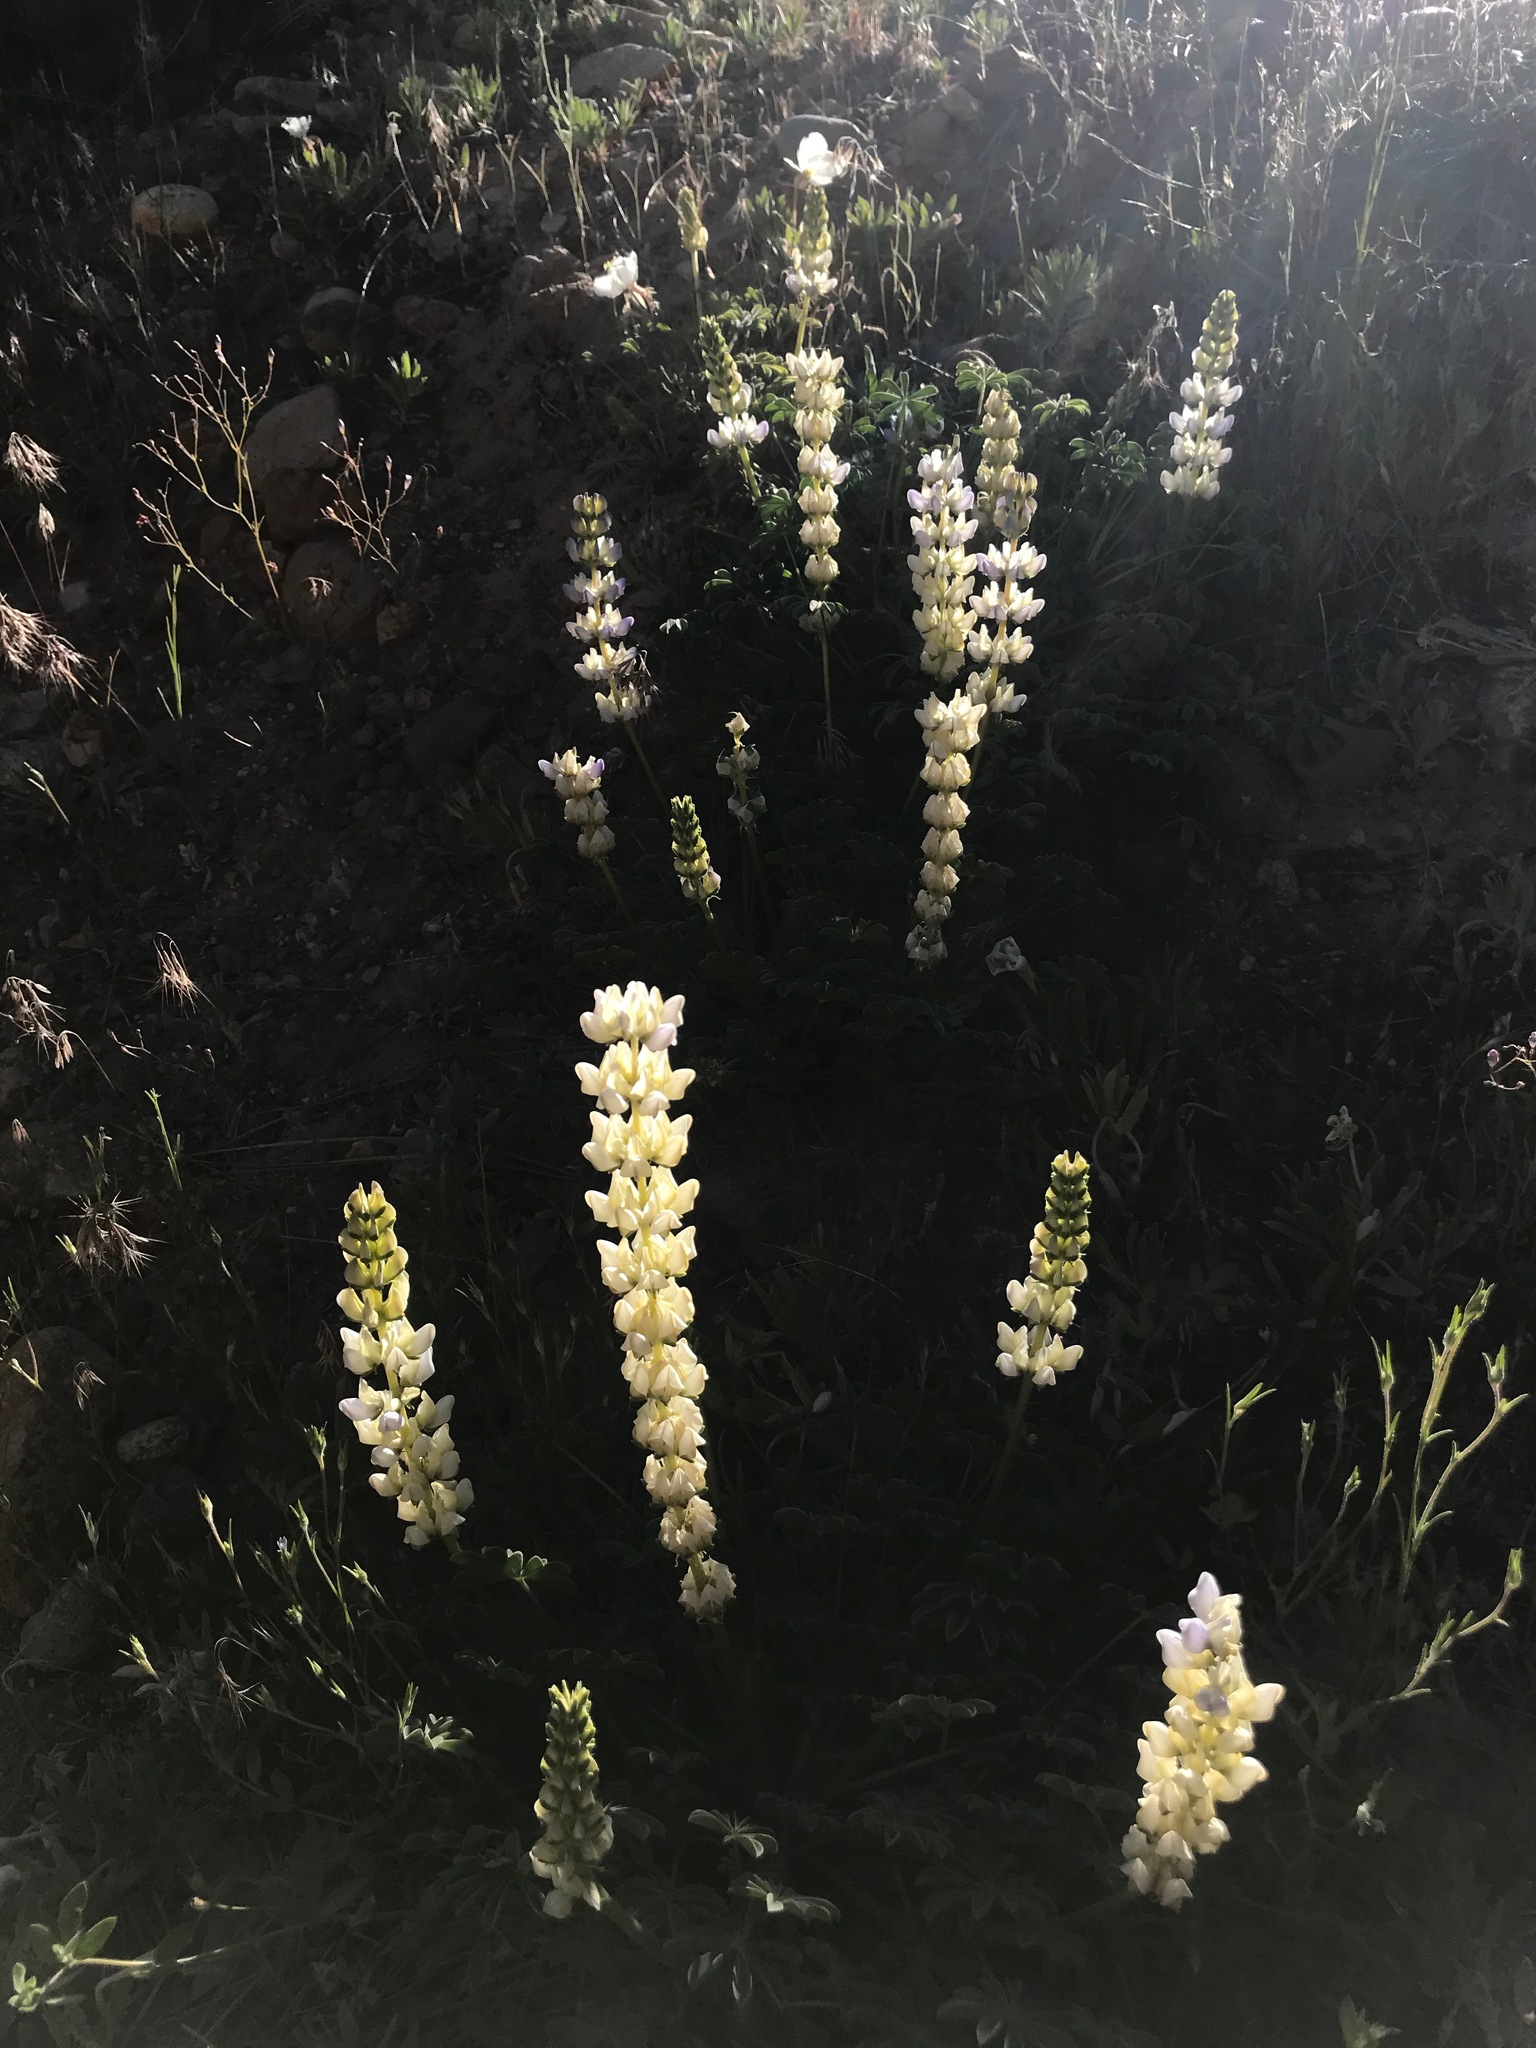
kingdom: Plantae
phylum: Tracheophyta
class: Magnoliopsida
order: Fabales
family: Fabaceae
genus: Lupinus
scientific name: Lupinus microcarpus
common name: Chick lupine
